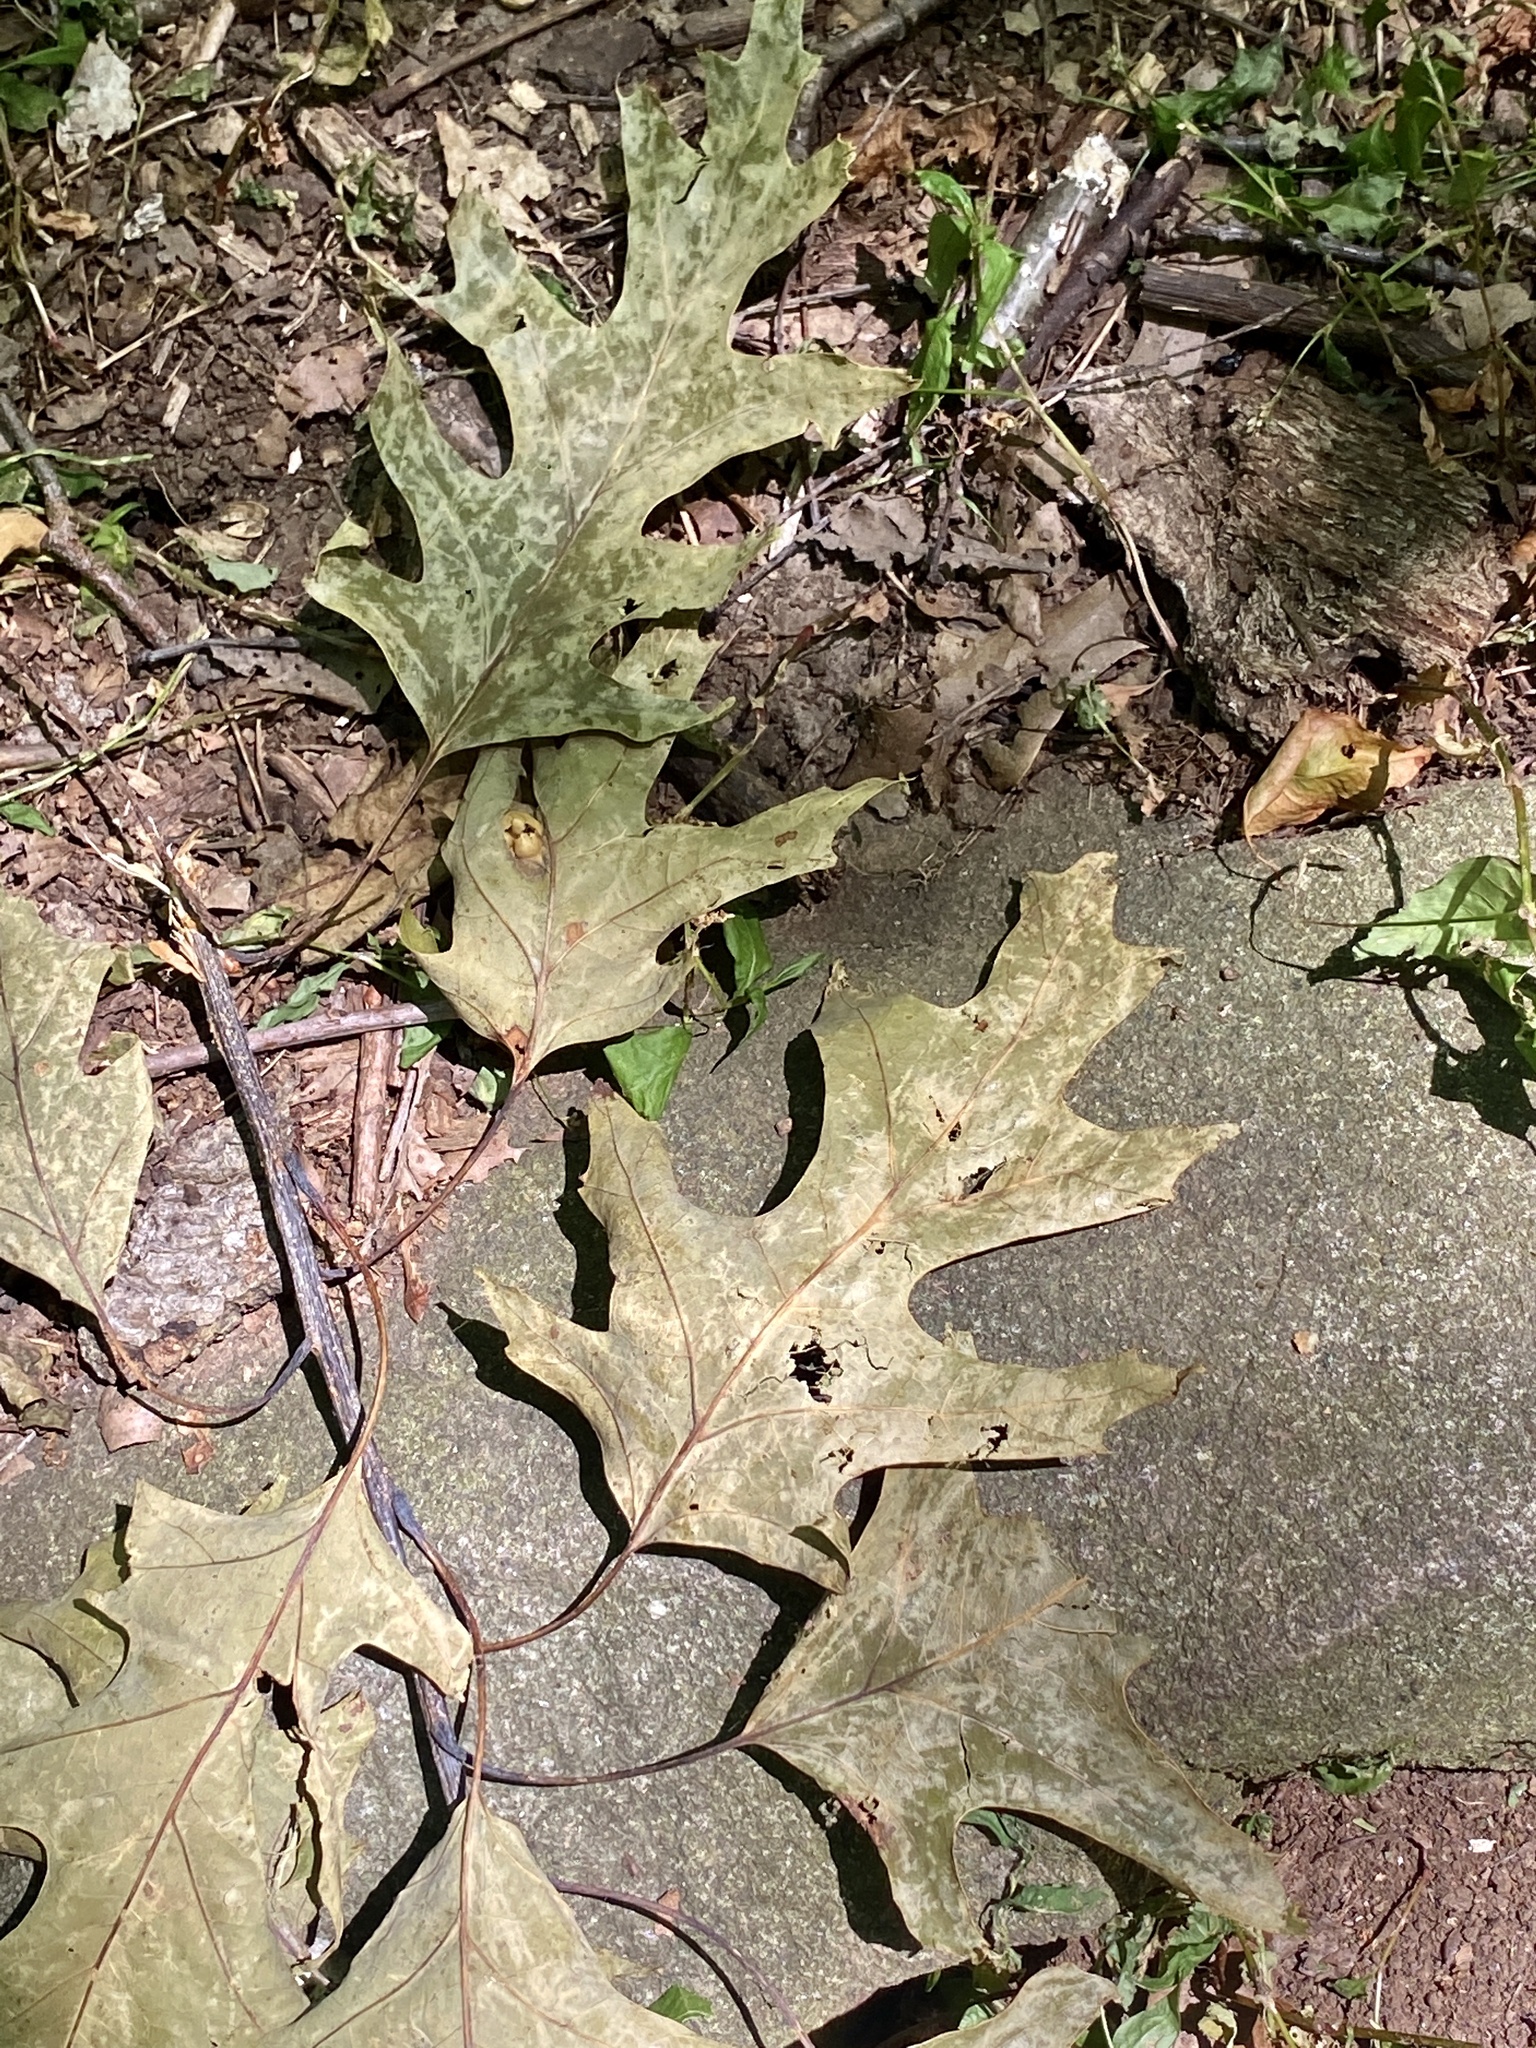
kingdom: Plantae
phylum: Tracheophyta
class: Magnoliopsida
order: Fagales
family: Fagaceae
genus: Quercus
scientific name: Quercus rubra
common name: Red oak
